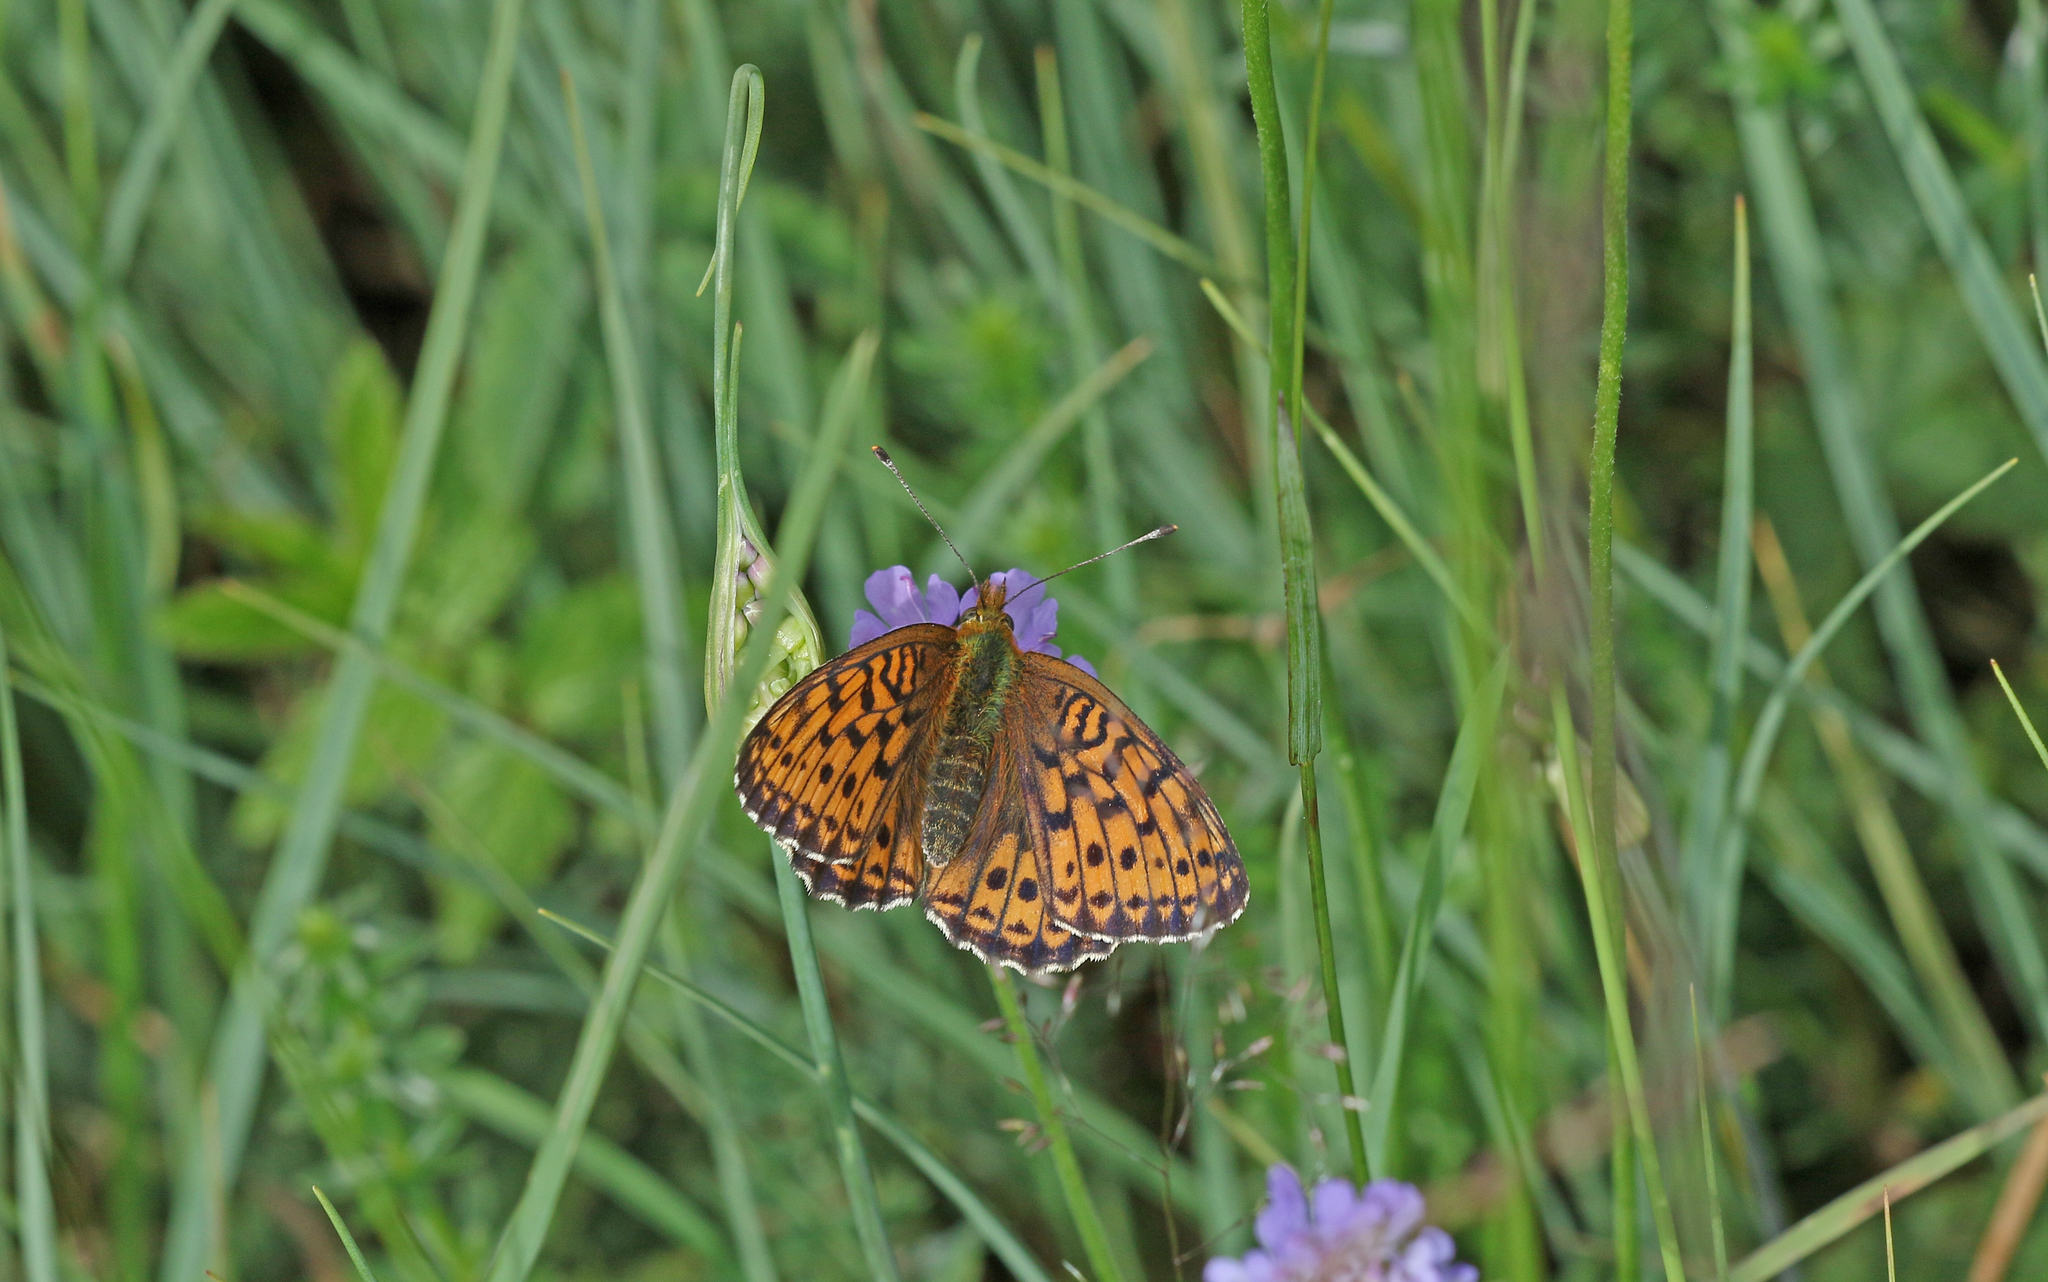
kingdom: Animalia
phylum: Arthropoda
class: Insecta
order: Lepidoptera
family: Nymphalidae
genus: Brenthis
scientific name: Brenthis ino
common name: Lesser marbled fritillary
